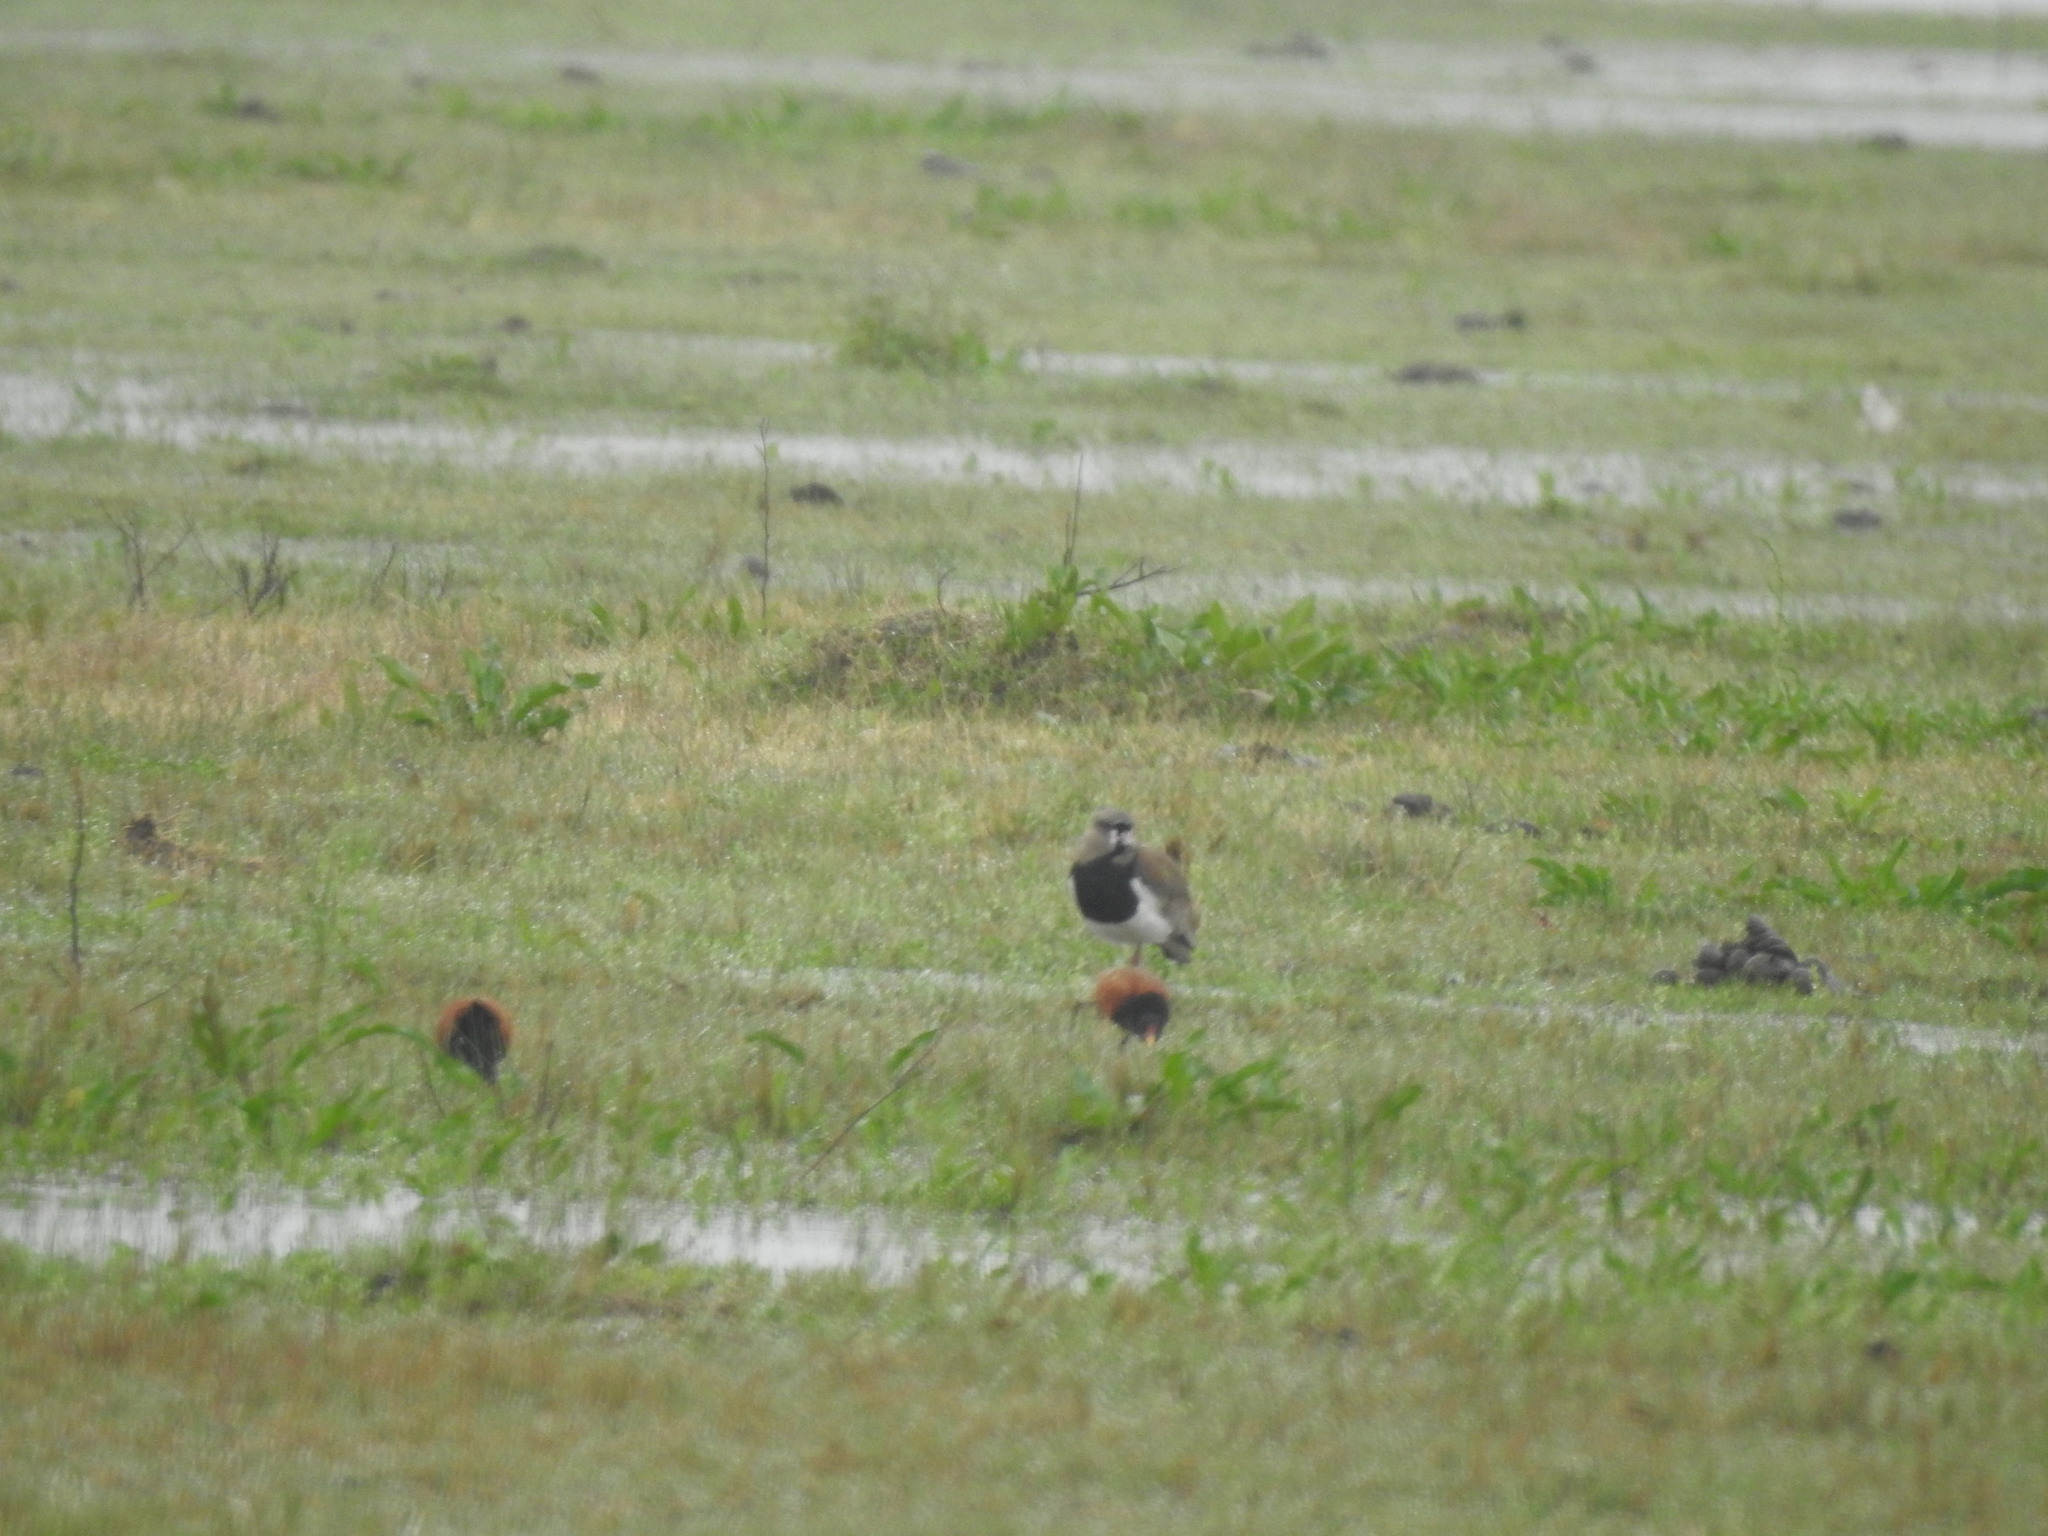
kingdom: Animalia
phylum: Chordata
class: Aves
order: Charadriiformes
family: Jacanidae
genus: Jacana
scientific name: Jacana jacana
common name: Wattled jacana
